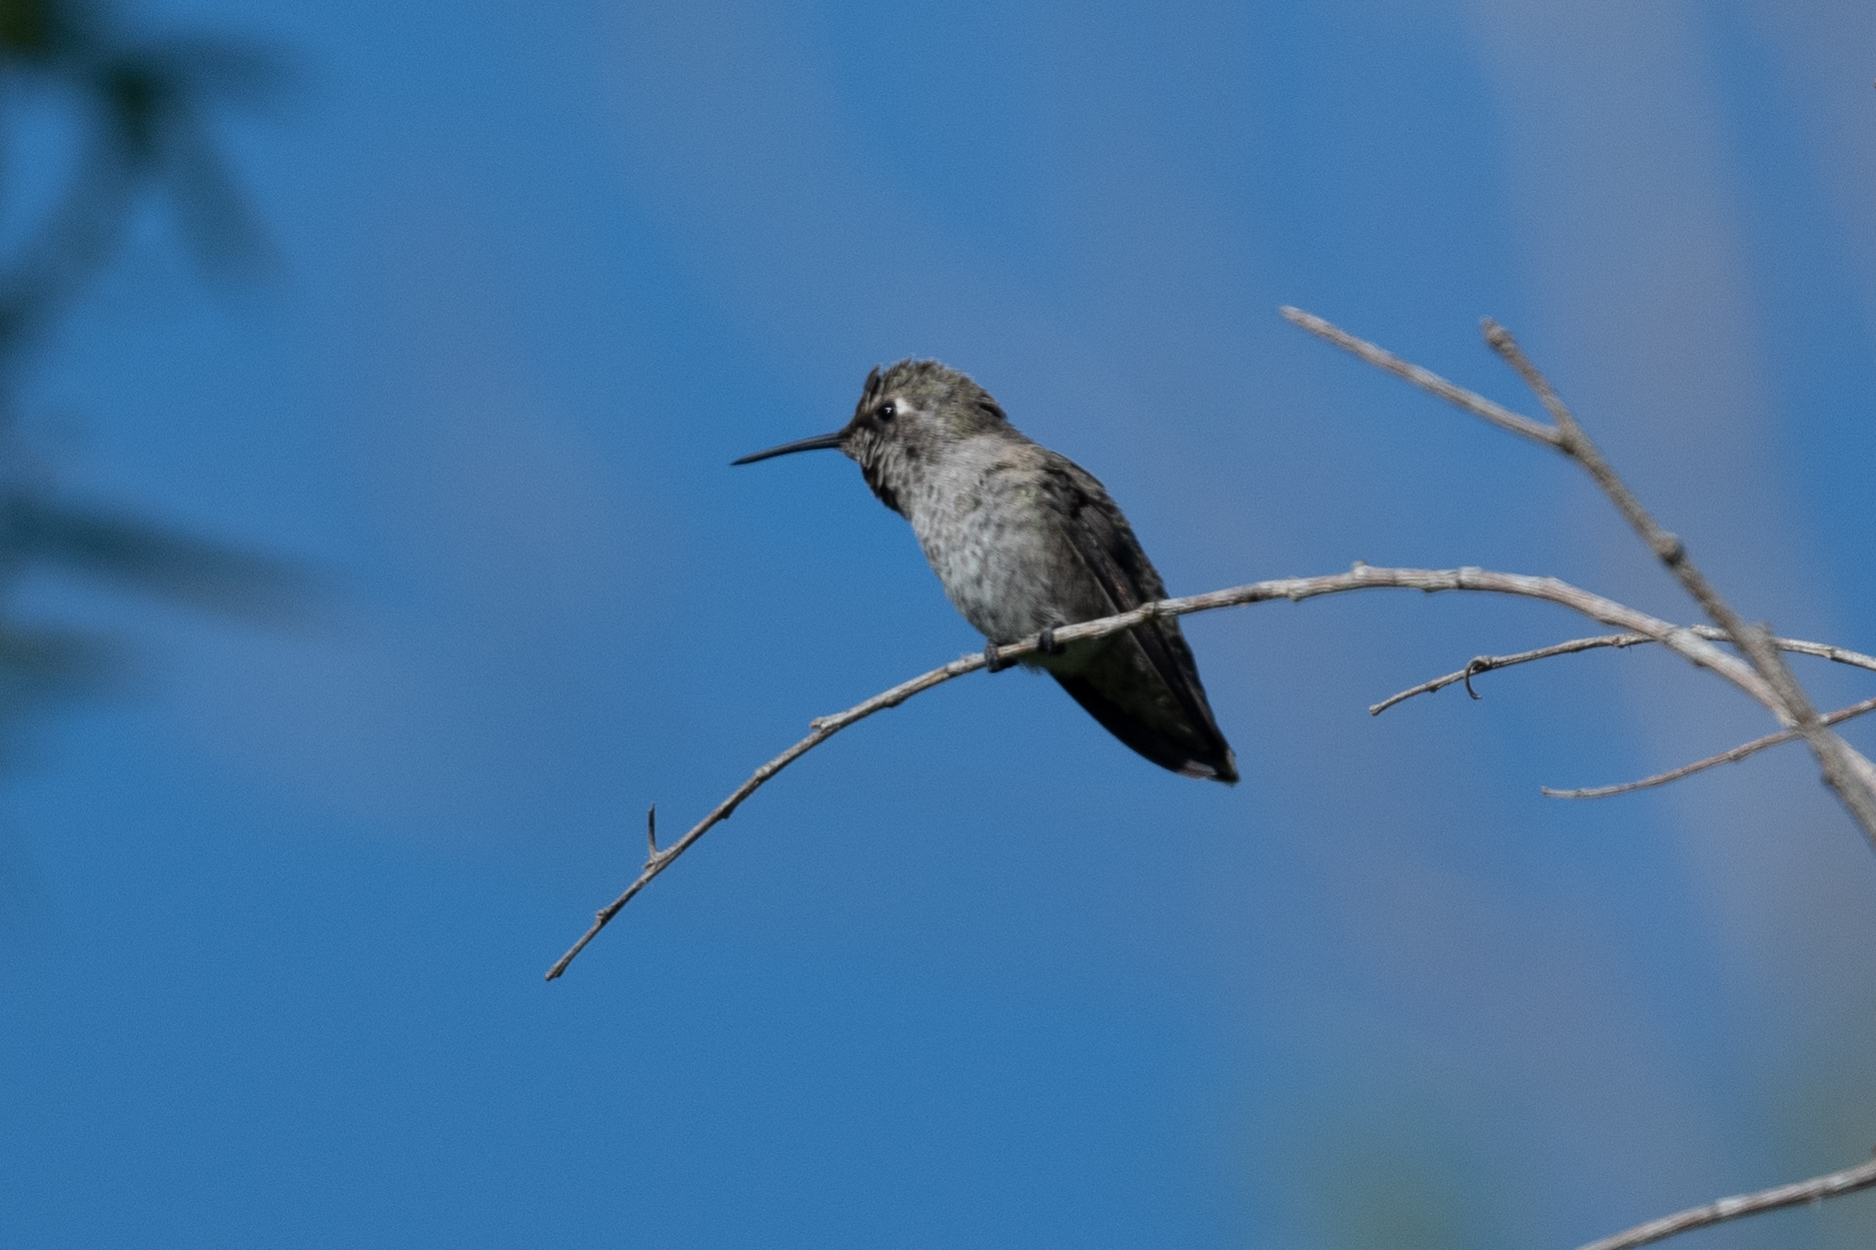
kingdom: Animalia
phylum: Chordata
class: Aves
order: Apodiformes
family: Trochilidae
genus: Calypte
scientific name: Calypte anna
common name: Anna's hummingbird
